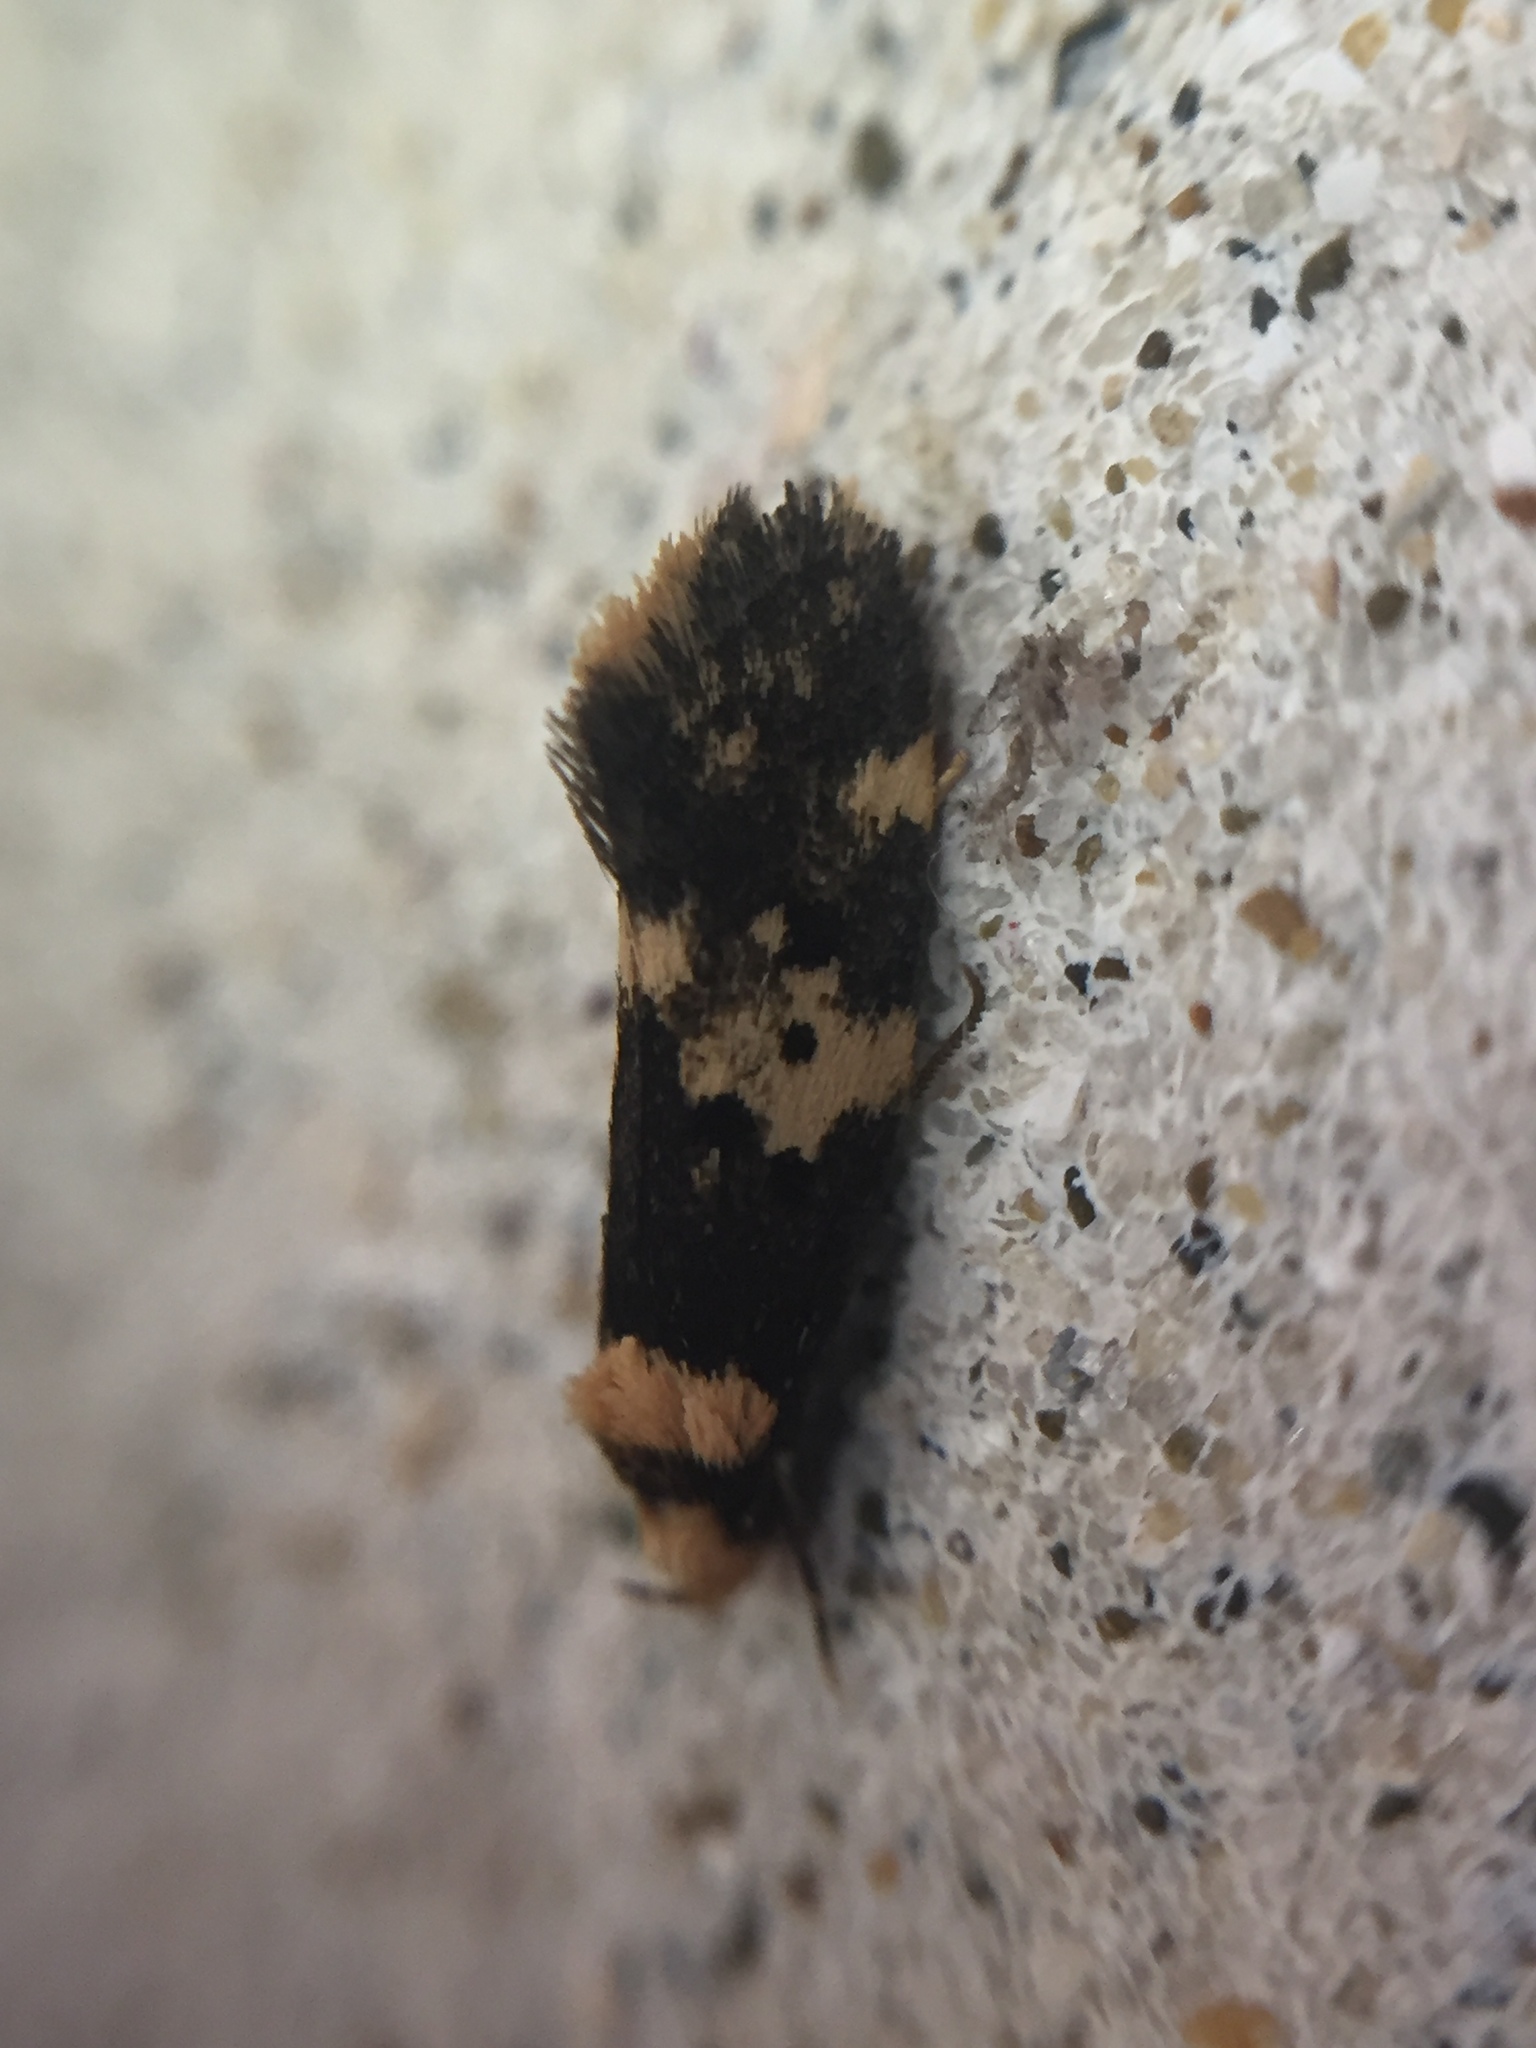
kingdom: Animalia
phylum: Arthropoda
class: Insecta
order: Lepidoptera
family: Oecophoridae
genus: Sphyrelata
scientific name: Sphyrelata amotella
